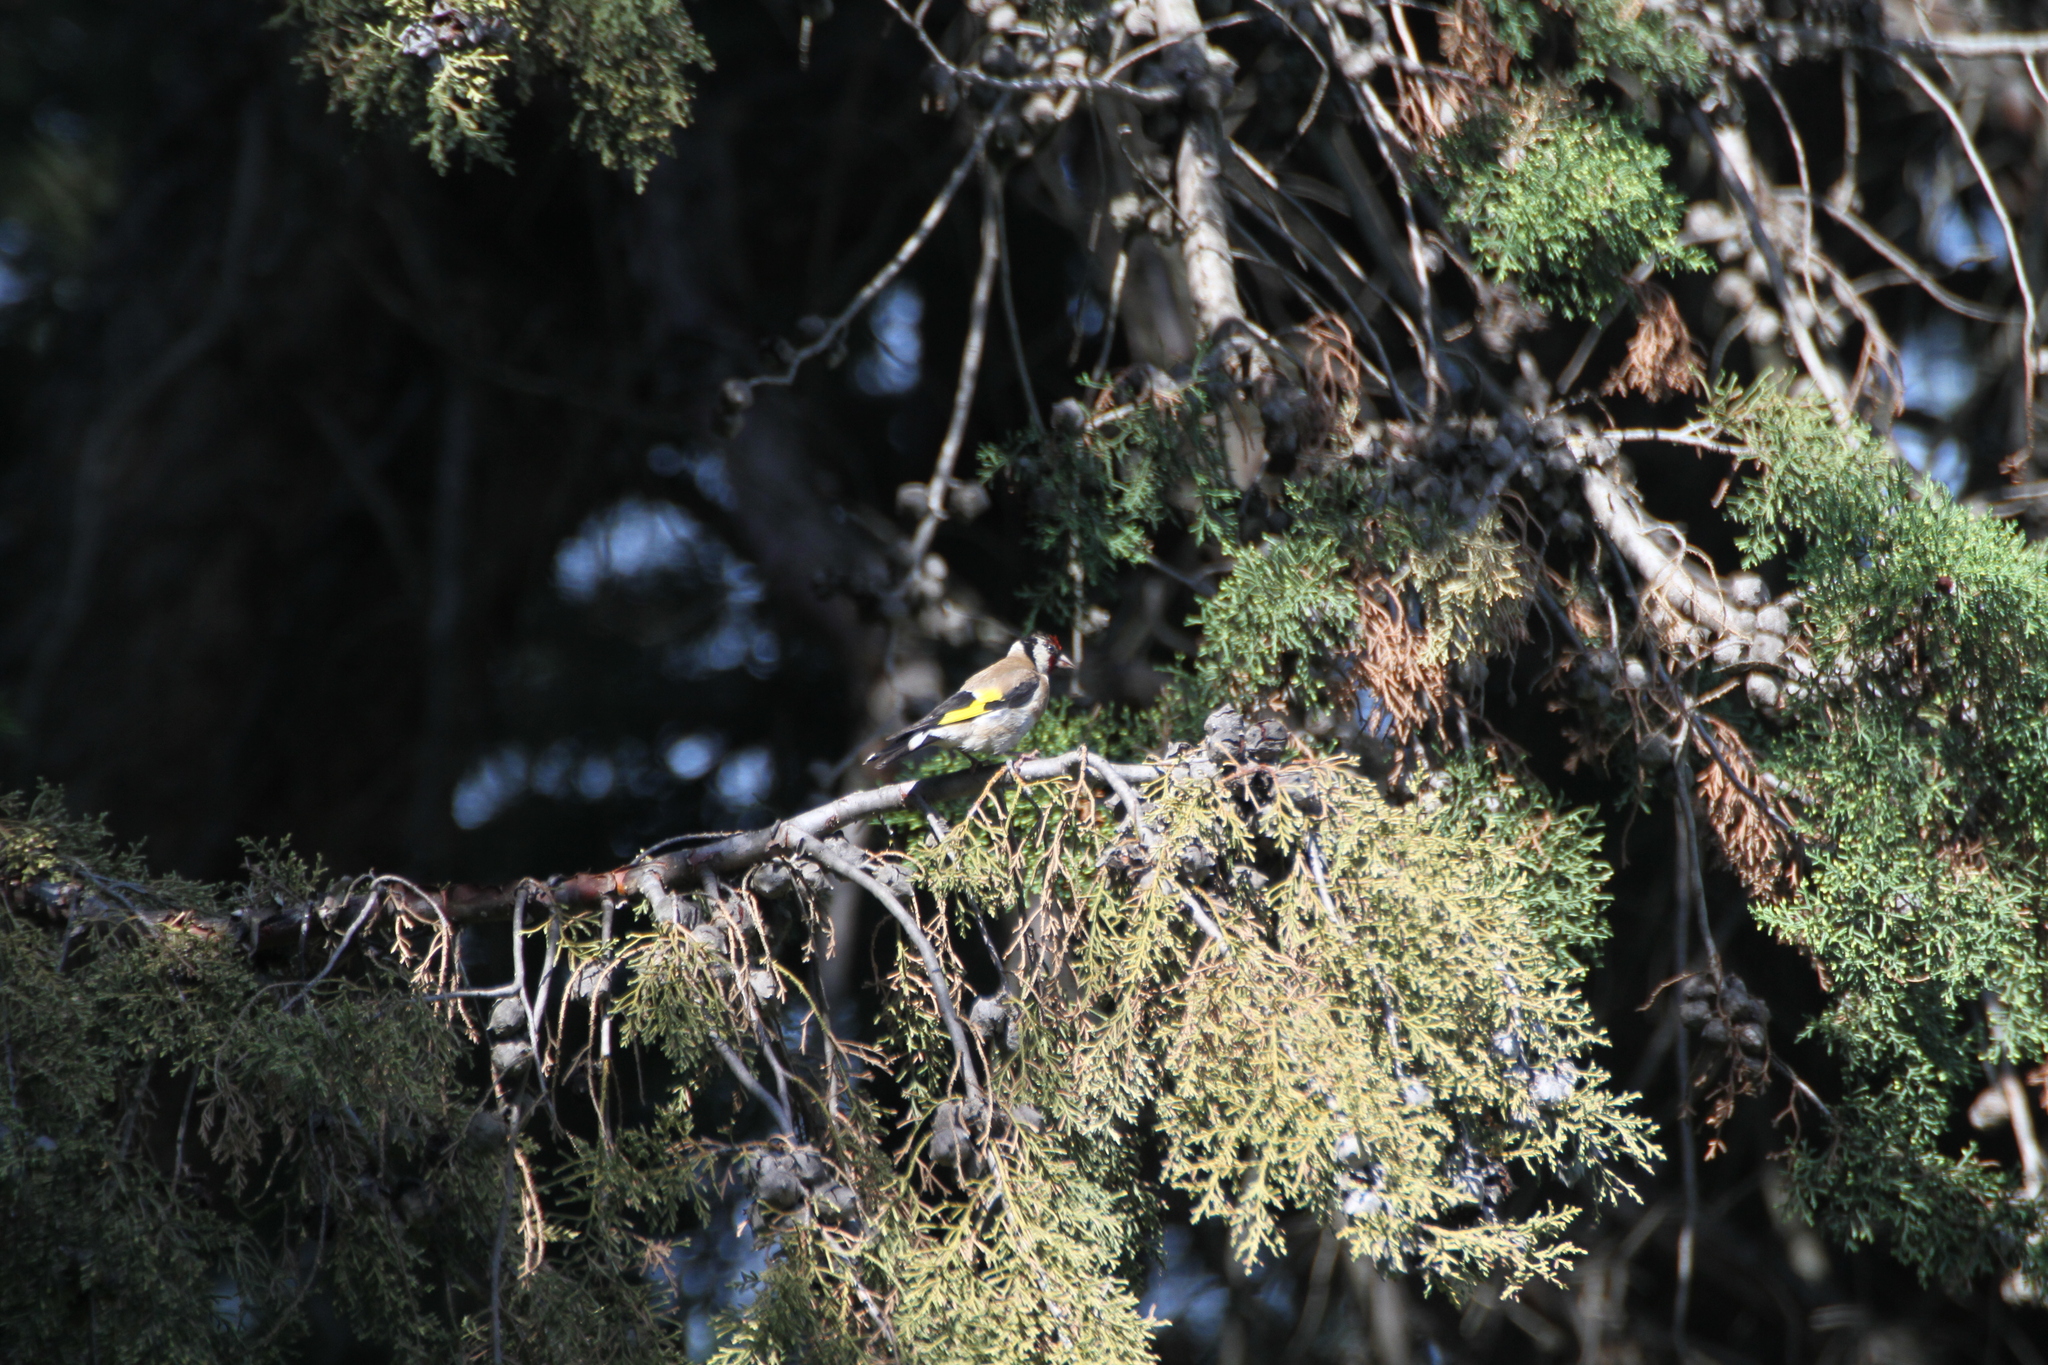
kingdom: Animalia
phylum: Chordata
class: Aves
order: Passeriformes
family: Fringillidae
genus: Carduelis
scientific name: Carduelis carduelis
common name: European goldfinch
